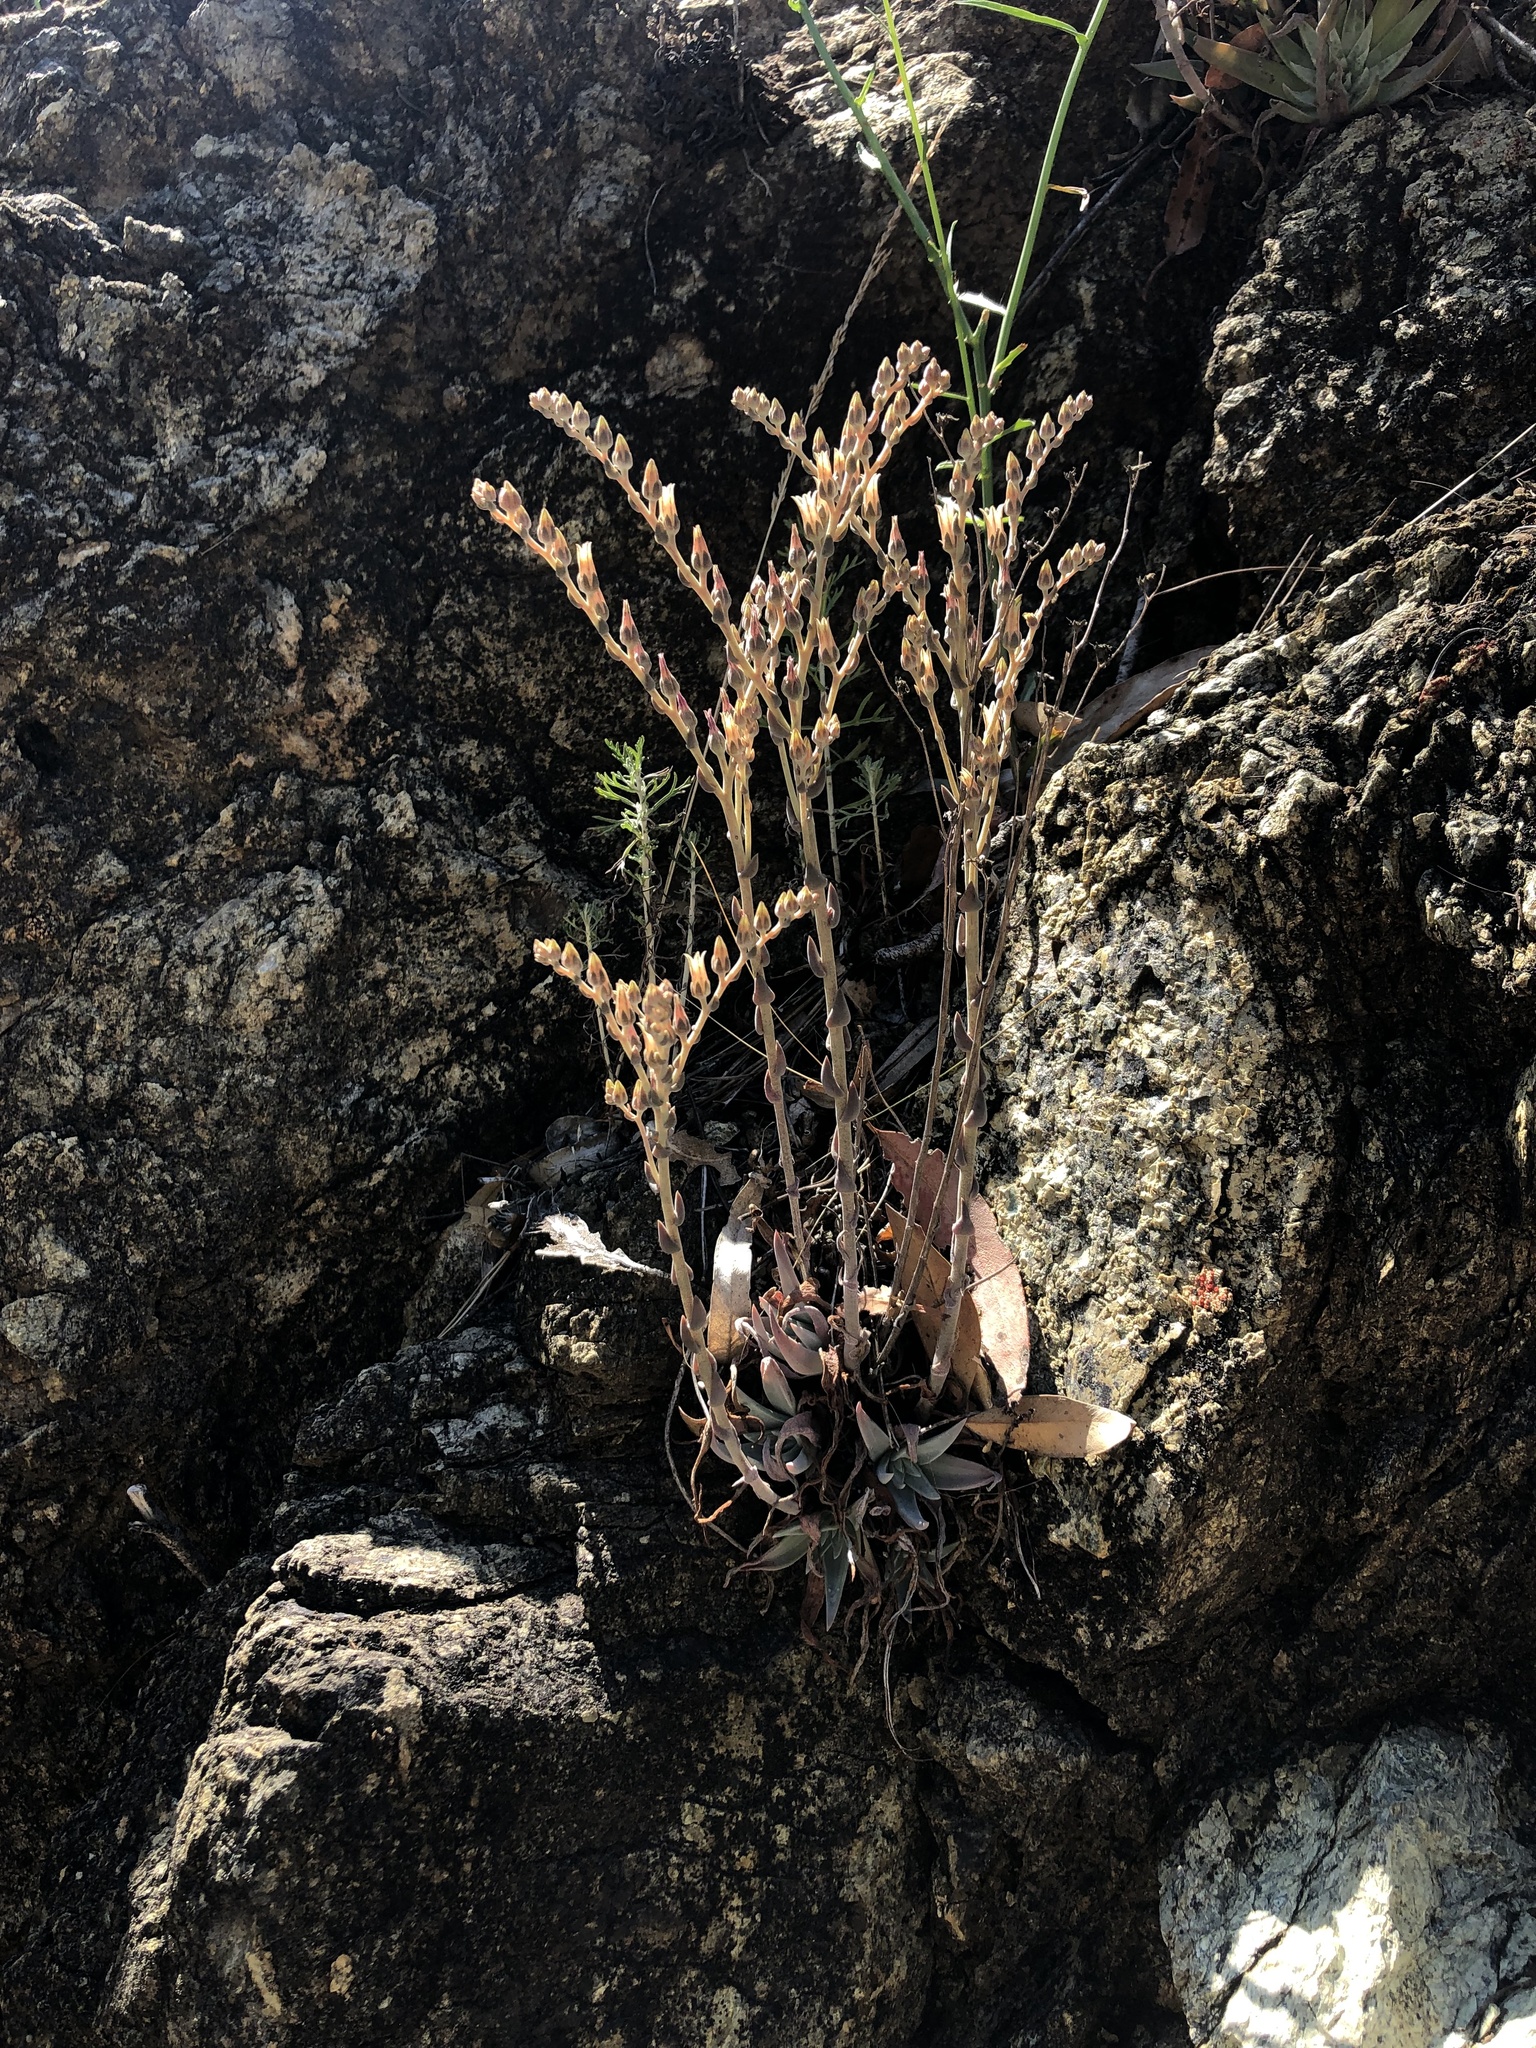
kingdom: Plantae
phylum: Tracheophyta
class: Magnoliopsida
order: Saxifragales
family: Crassulaceae
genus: Dudleya
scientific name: Dudleya abramsii
